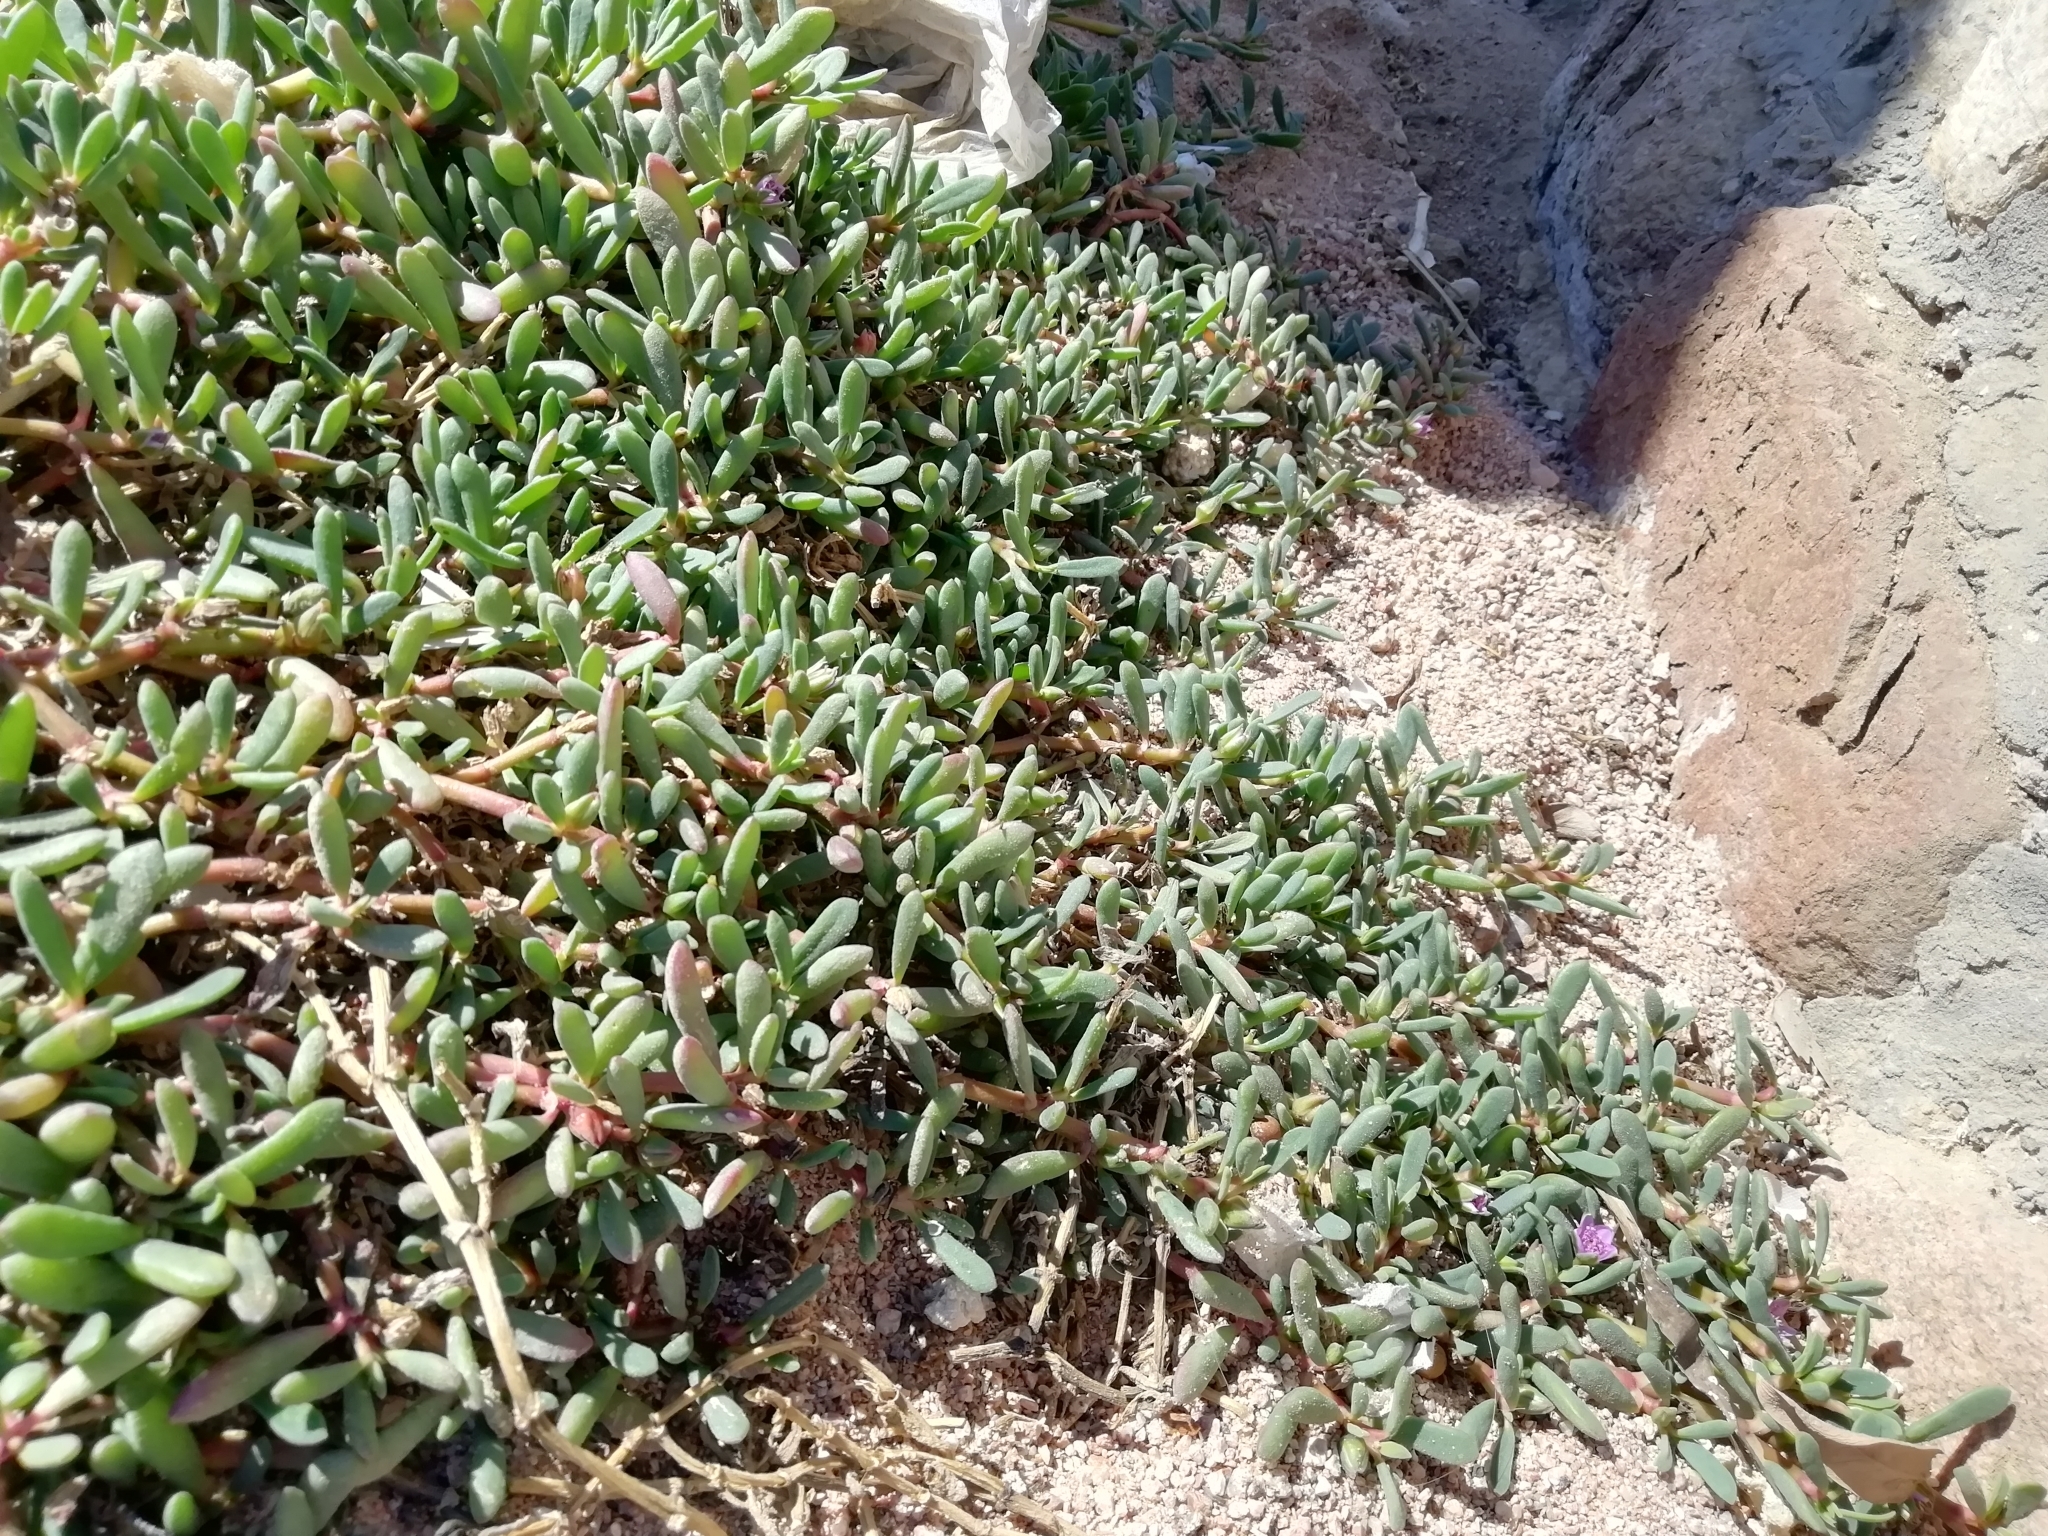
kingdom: Plantae
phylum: Tracheophyta
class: Magnoliopsida
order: Caryophyllales
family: Aizoaceae
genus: Sesuvium
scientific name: Sesuvium portulacastrum
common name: Sea-purslane
